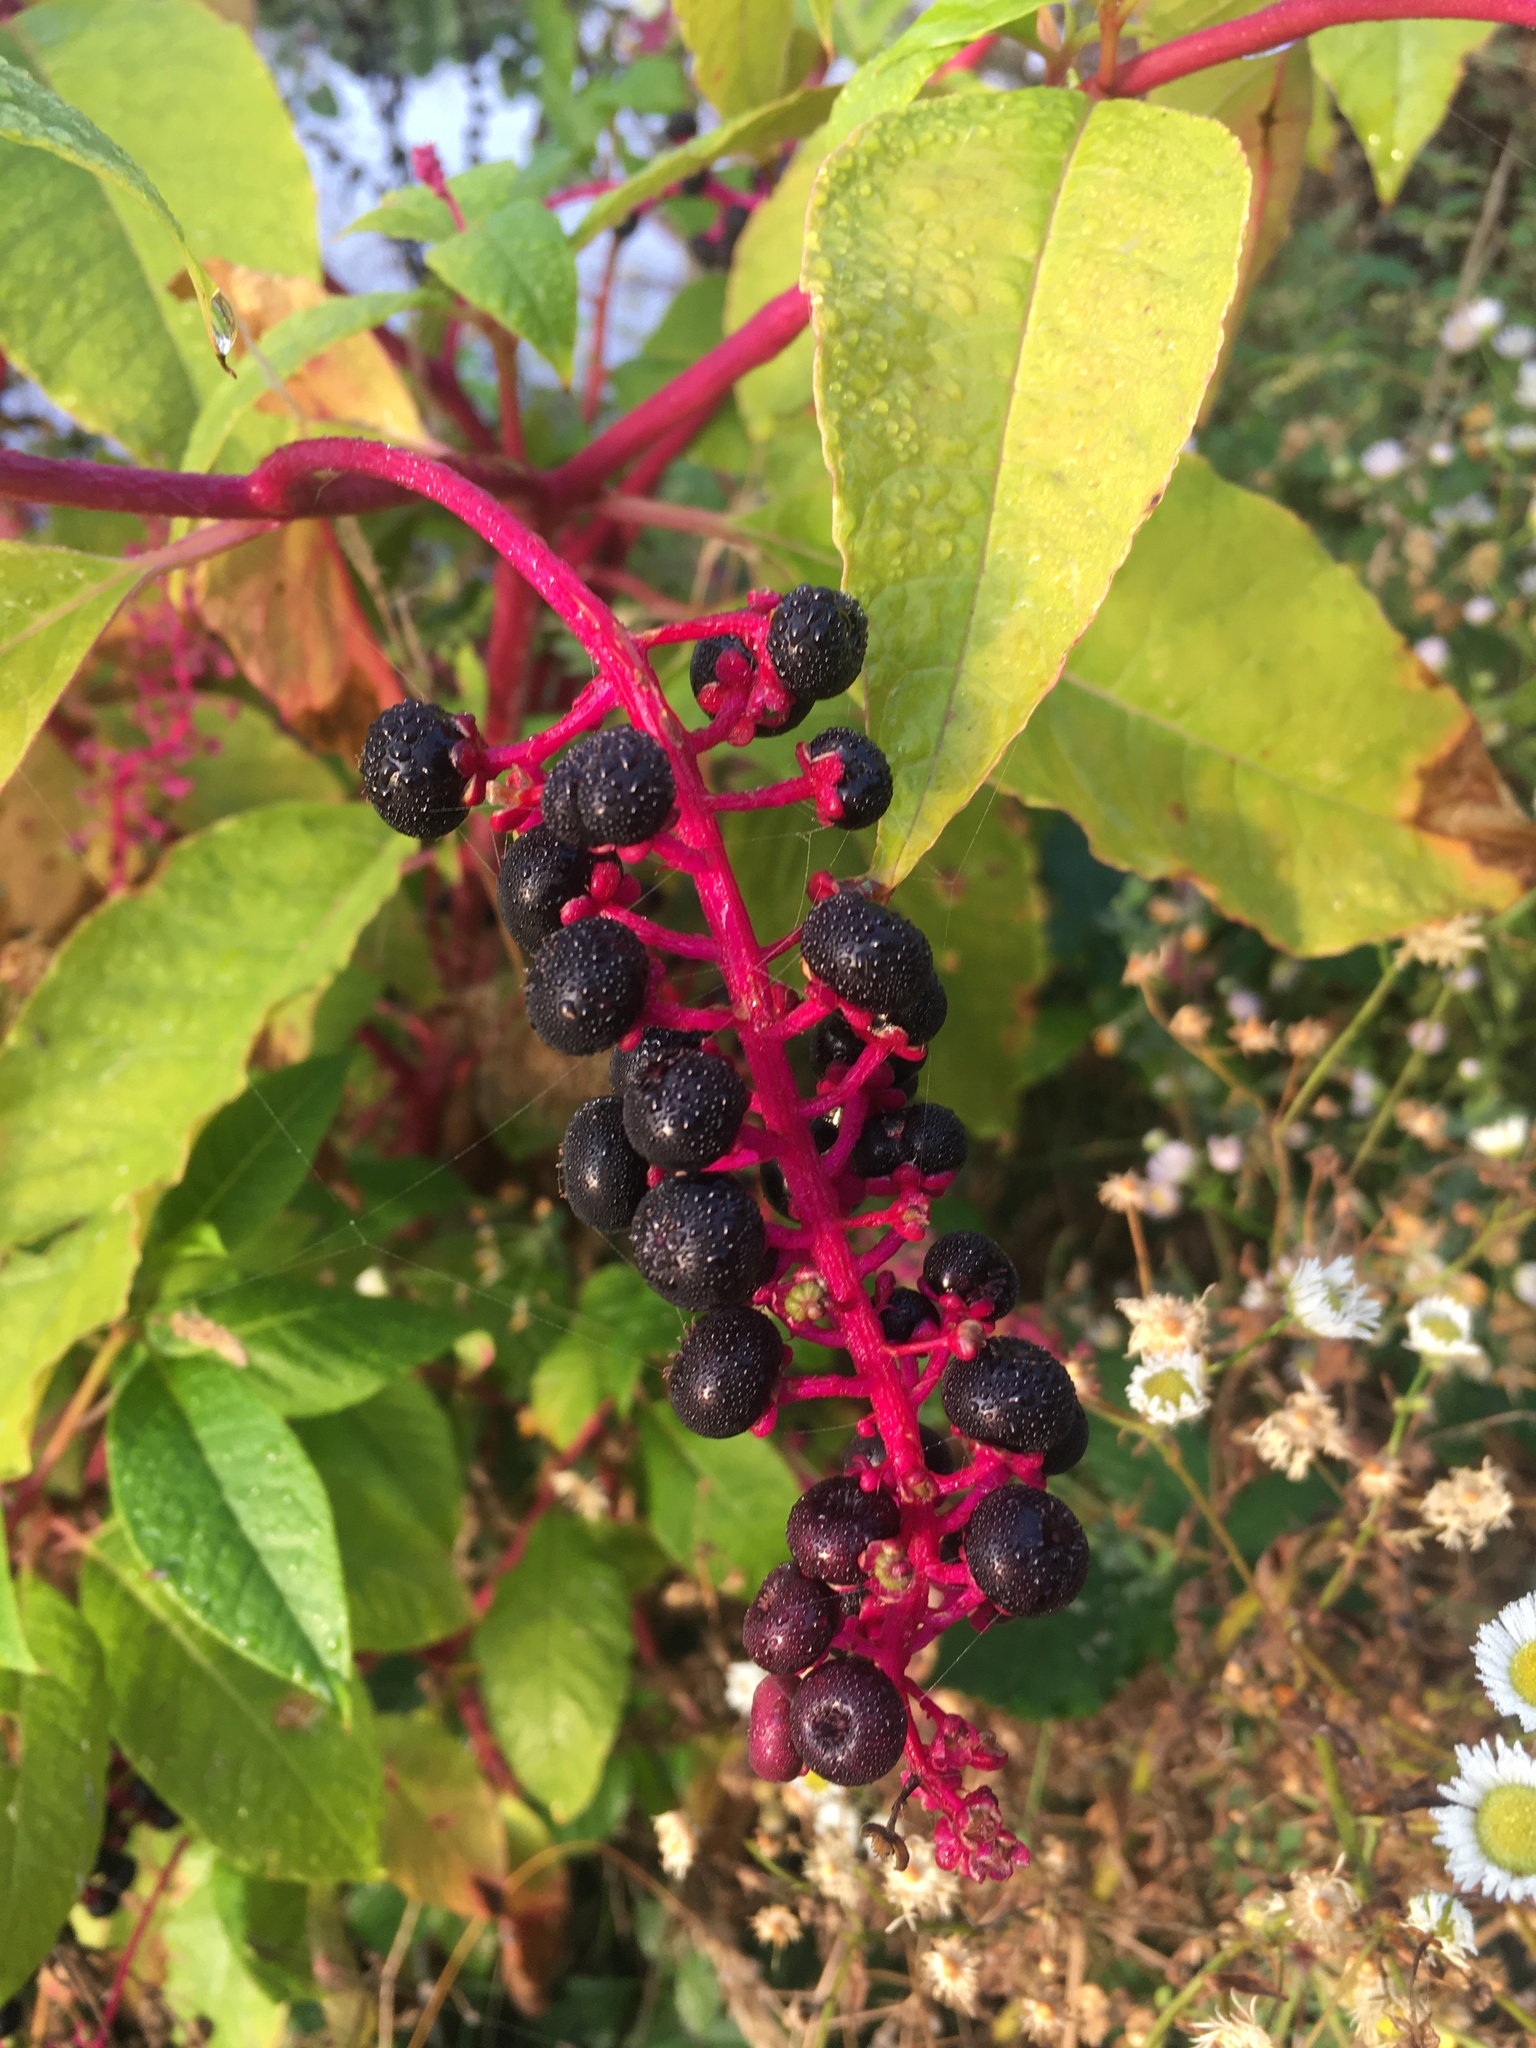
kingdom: Plantae
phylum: Tracheophyta
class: Magnoliopsida
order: Caryophyllales
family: Phytolaccaceae
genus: Phytolacca
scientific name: Phytolacca americana
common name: American pokeweed
